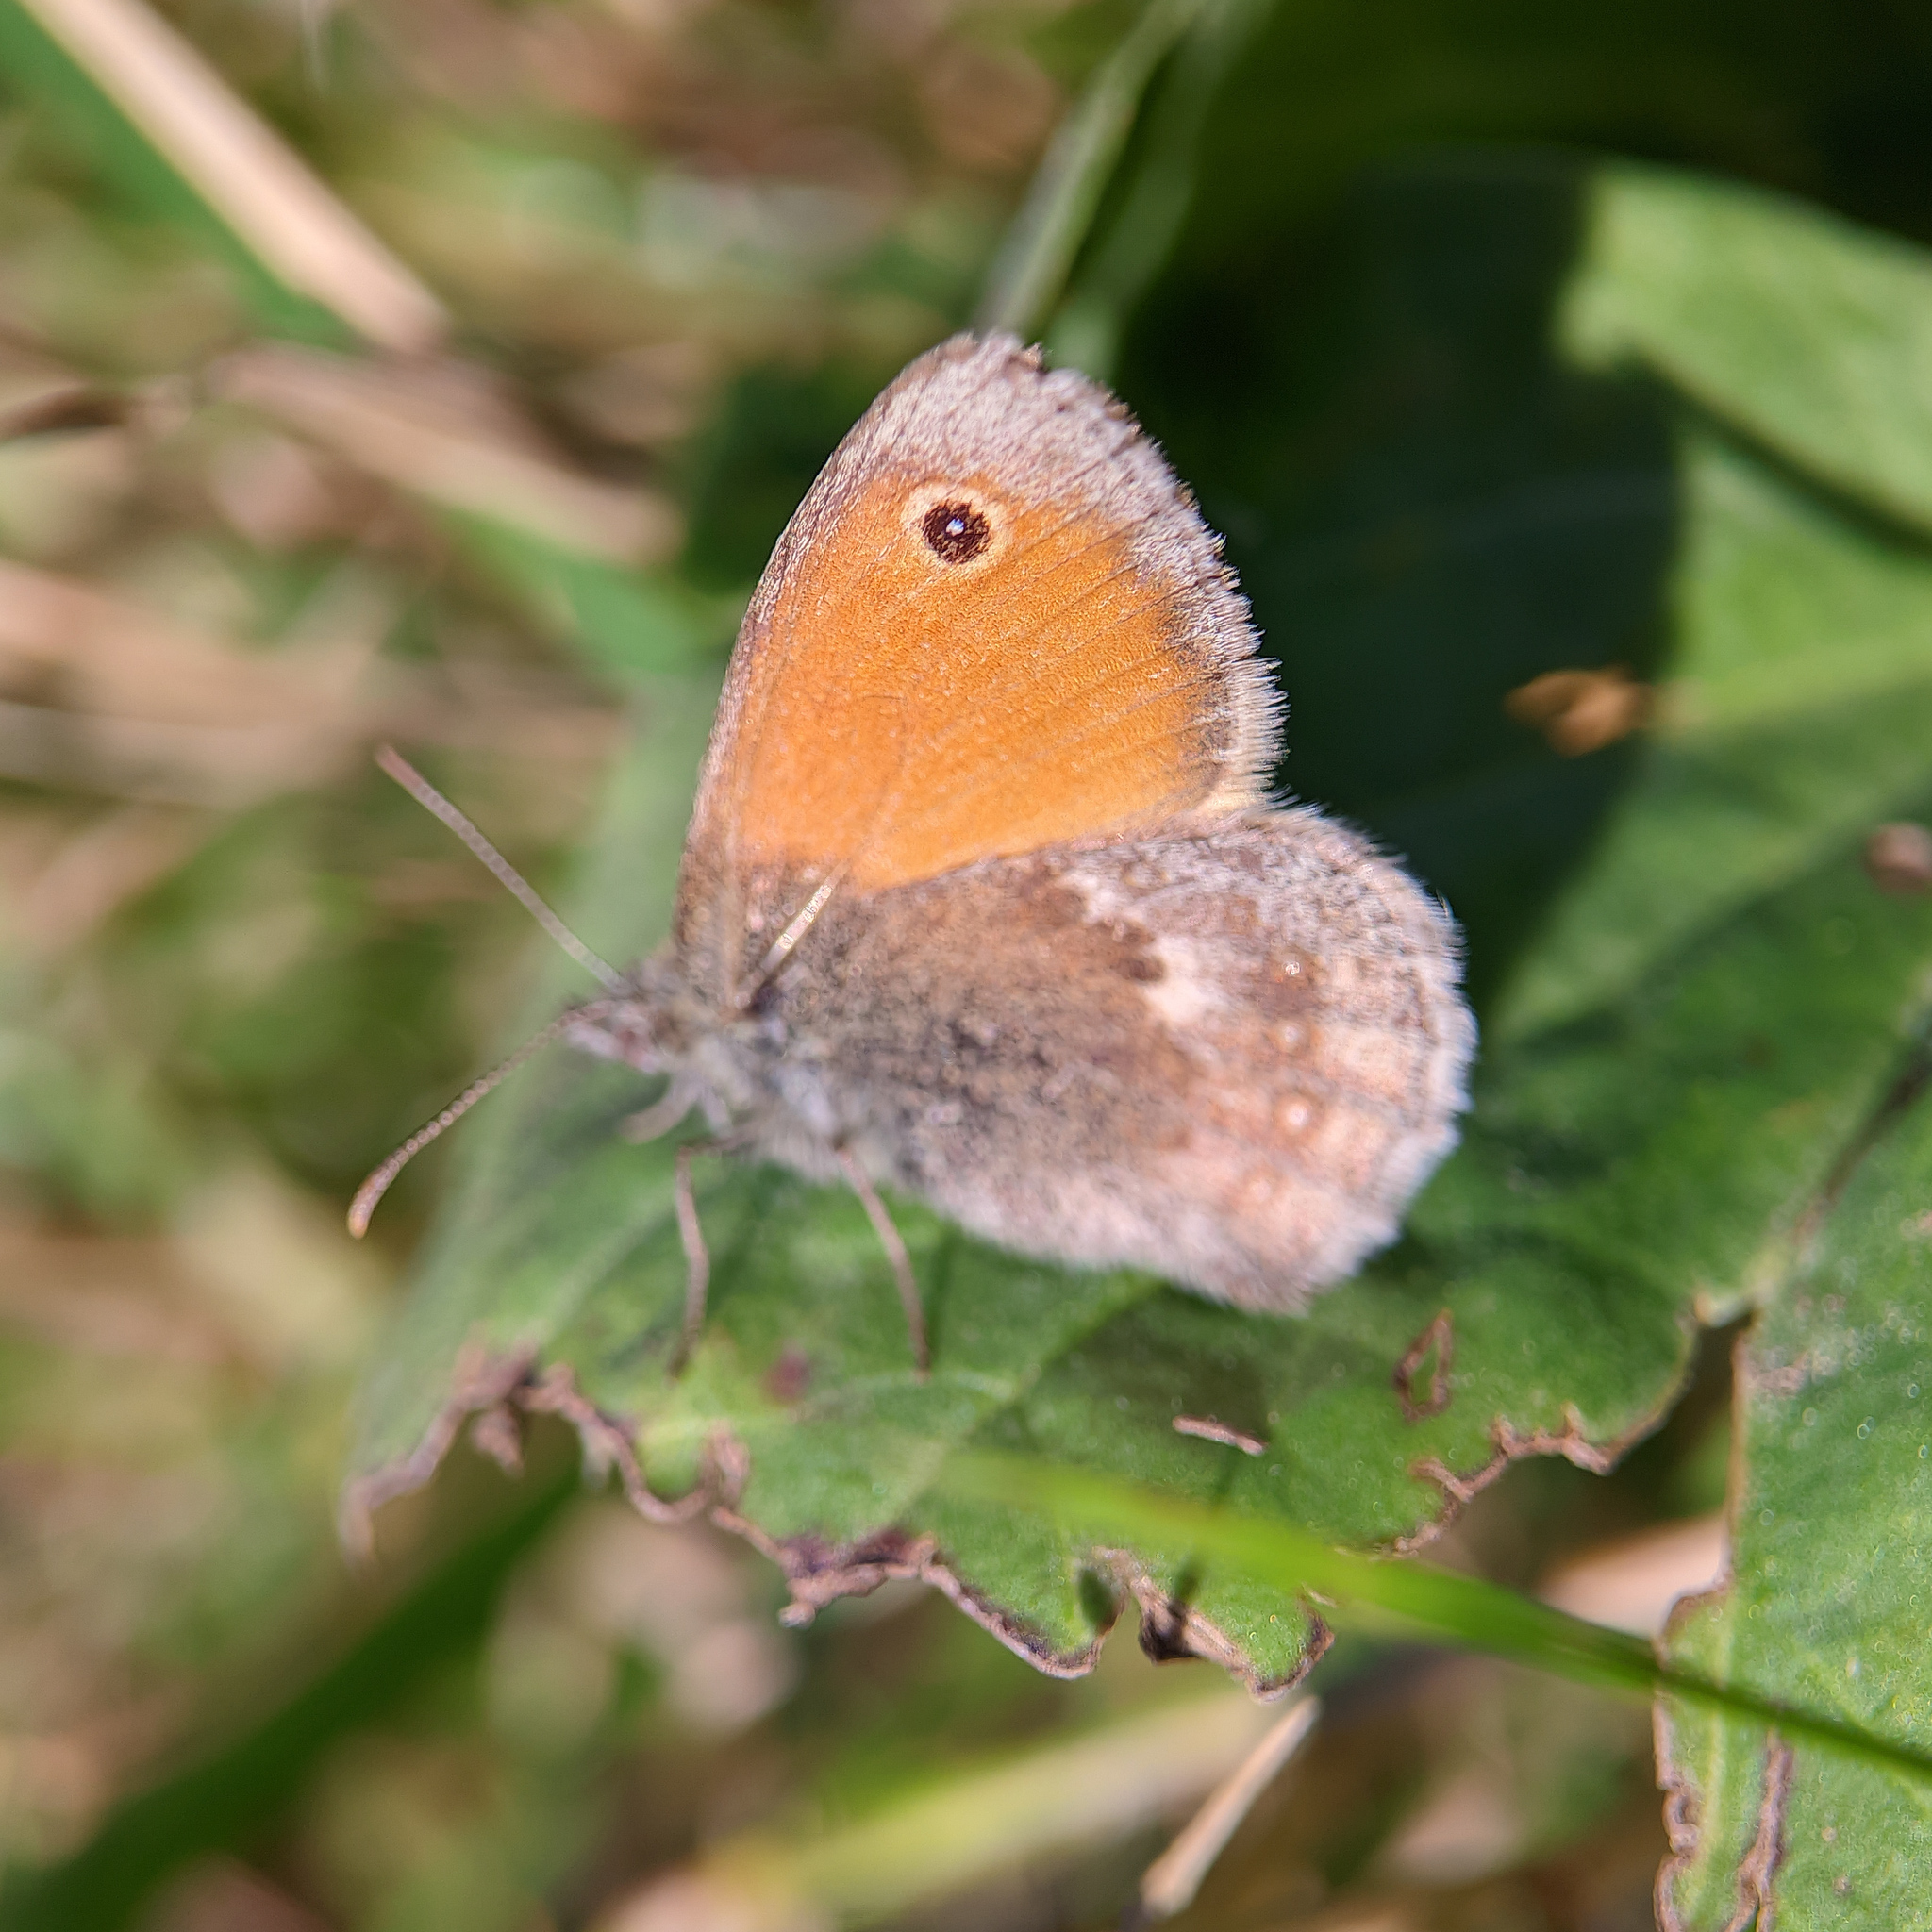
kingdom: Animalia
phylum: Arthropoda
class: Insecta
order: Lepidoptera
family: Nymphalidae
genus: Coenonympha
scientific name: Coenonympha pamphilus
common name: Small heath
